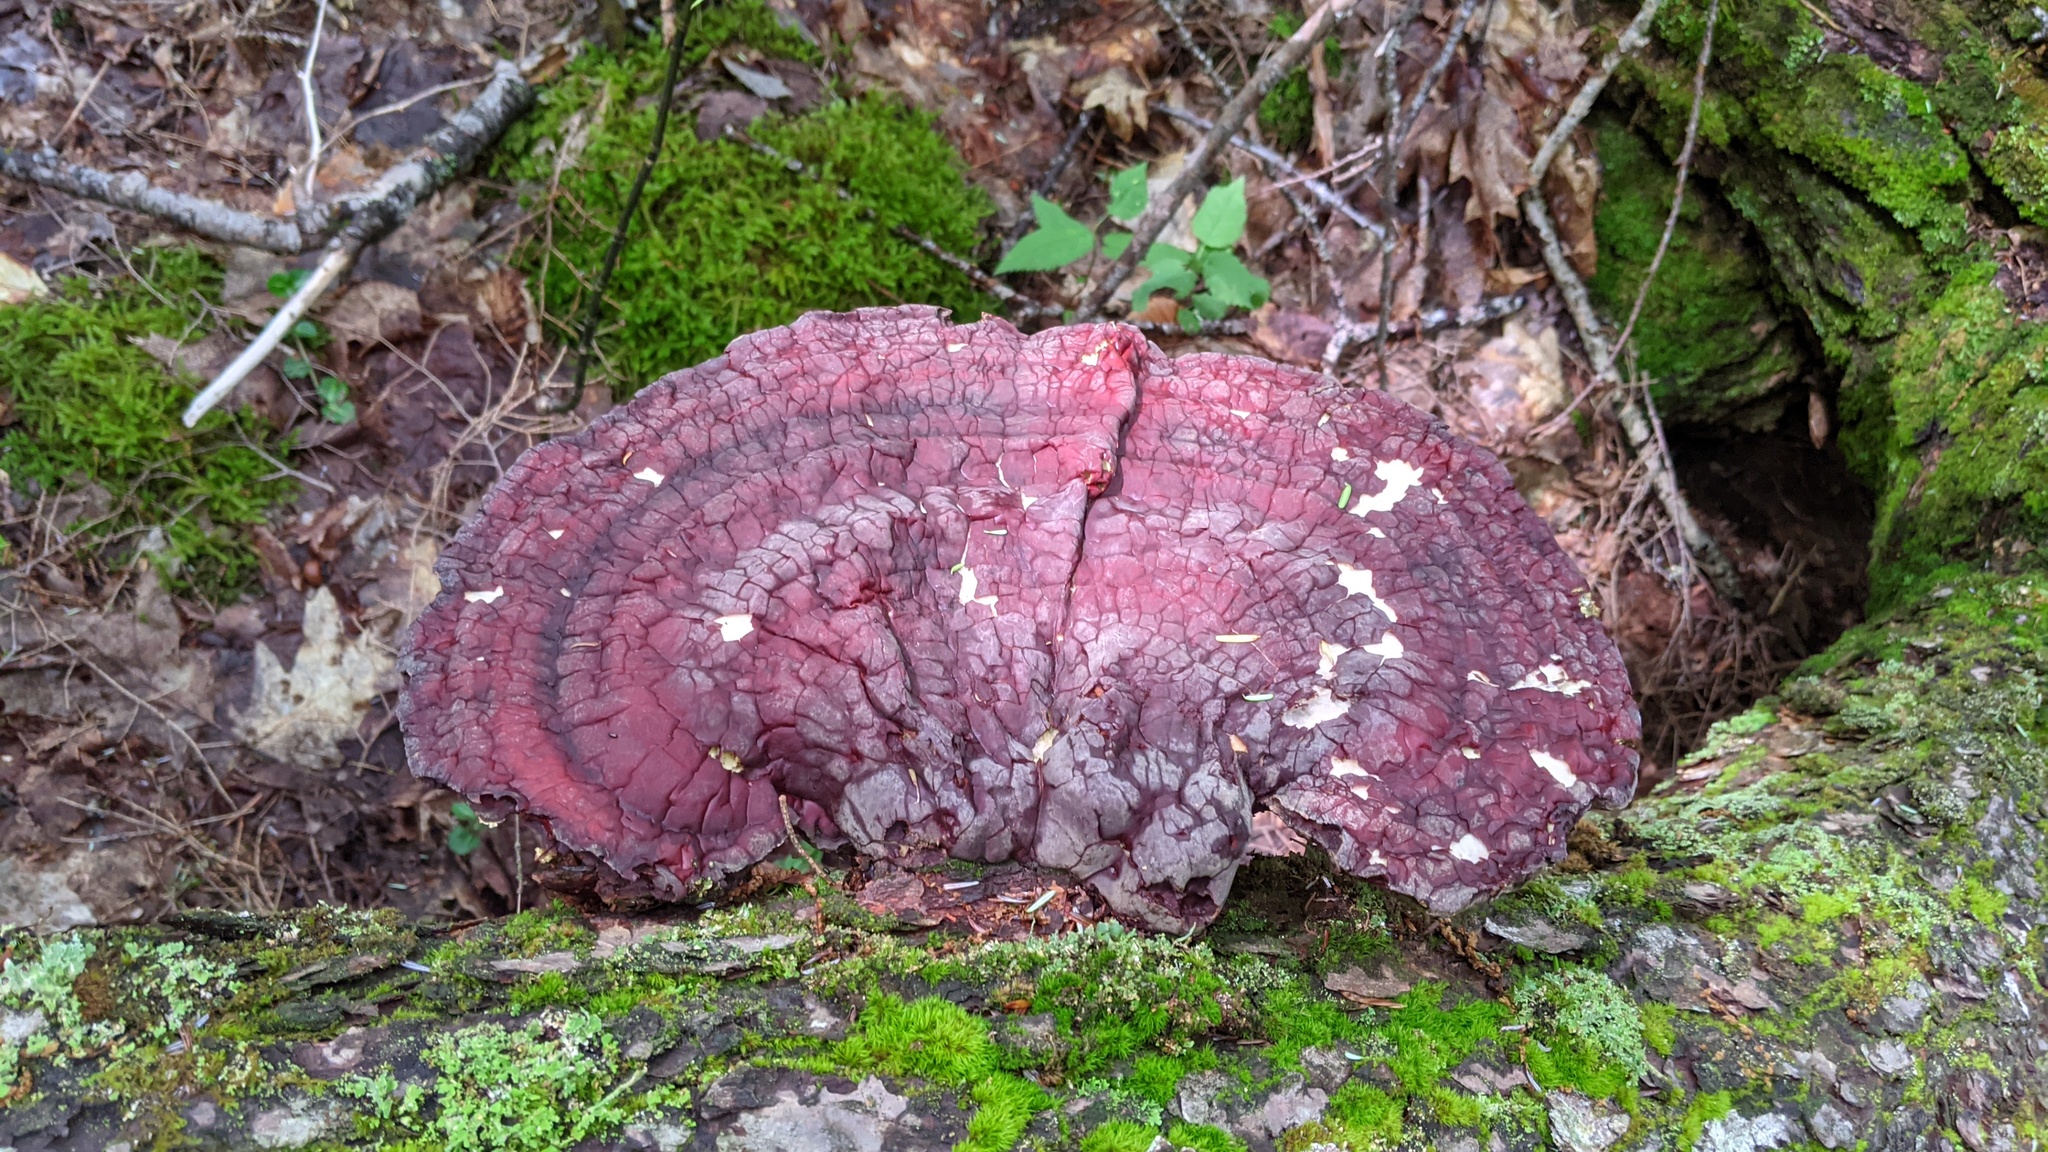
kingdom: Fungi
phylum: Basidiomycota
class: Agaricomycetes
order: Polyporales
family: Polyporaceae
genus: Ganoderma
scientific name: Ganoderma tsugae
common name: Hemlock varnish shelf
